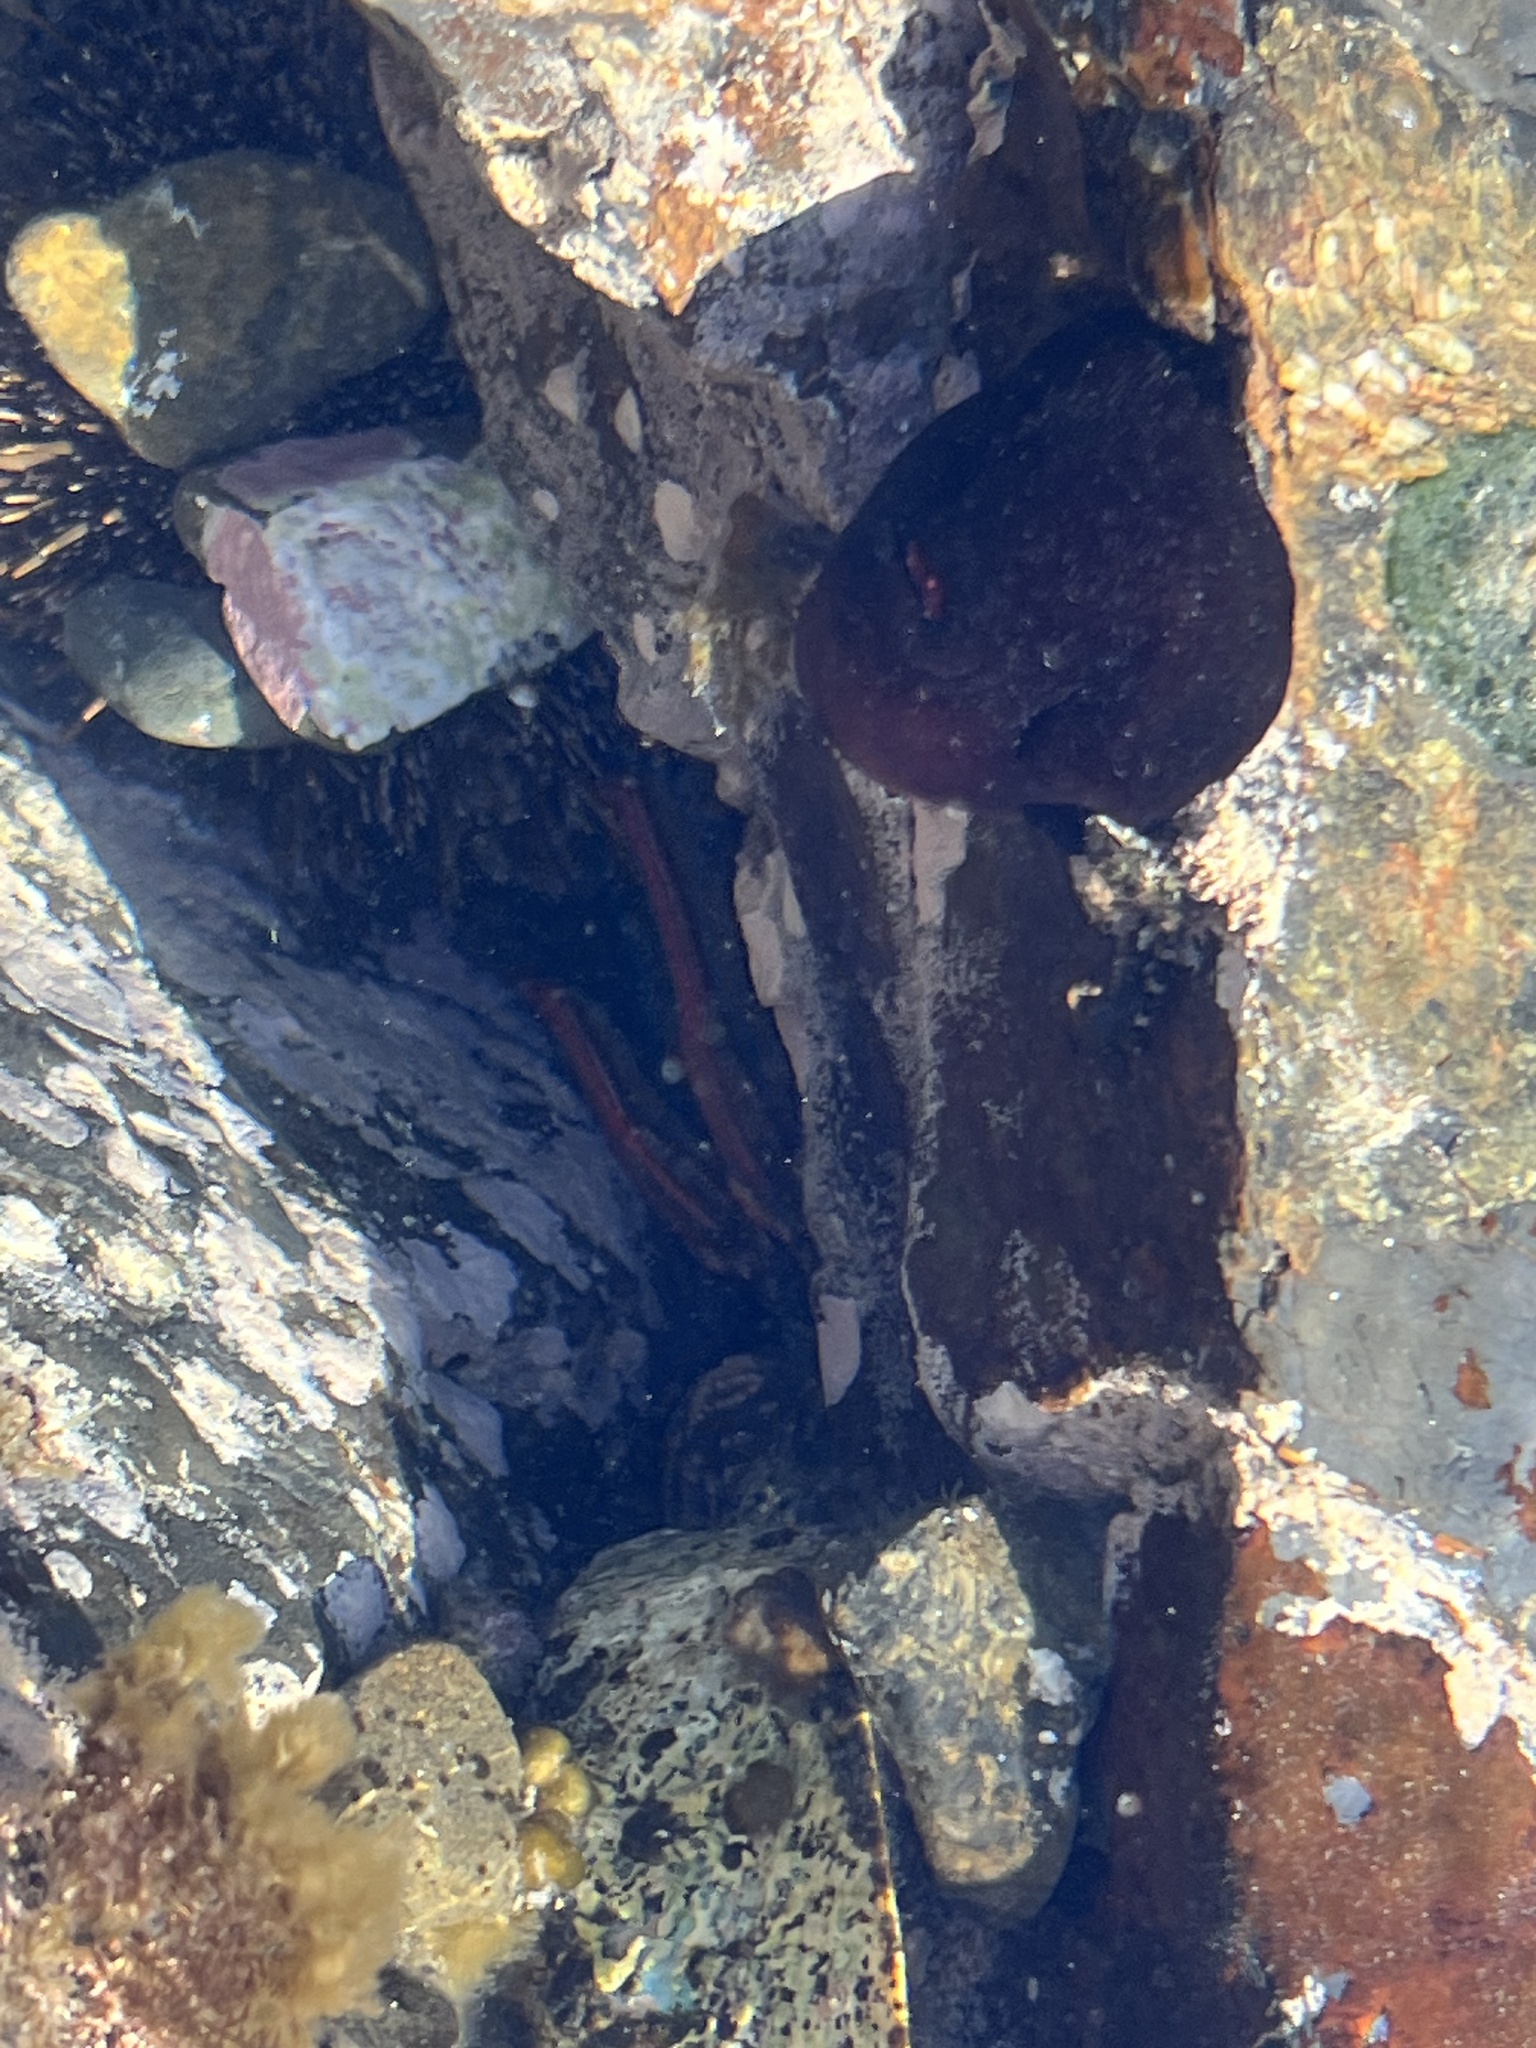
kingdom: Animalia
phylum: Arthropoda
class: Malacostraca
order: Decapoda
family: Plagusiidae
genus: Guinusia
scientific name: Guinusia chabrus
